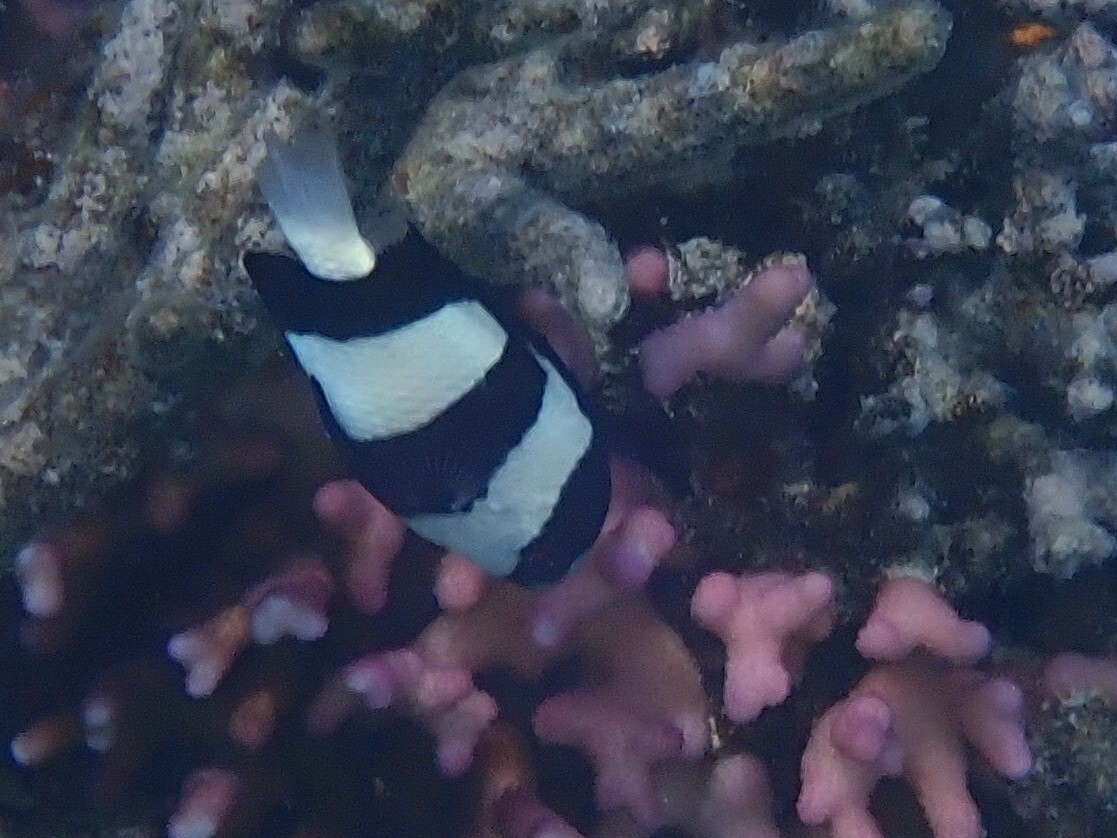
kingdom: Animalia
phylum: Chordata
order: Perciformes
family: Pomacentridae
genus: Dascyllus
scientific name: Dascyllus aruanus
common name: Humbug dascyllus
